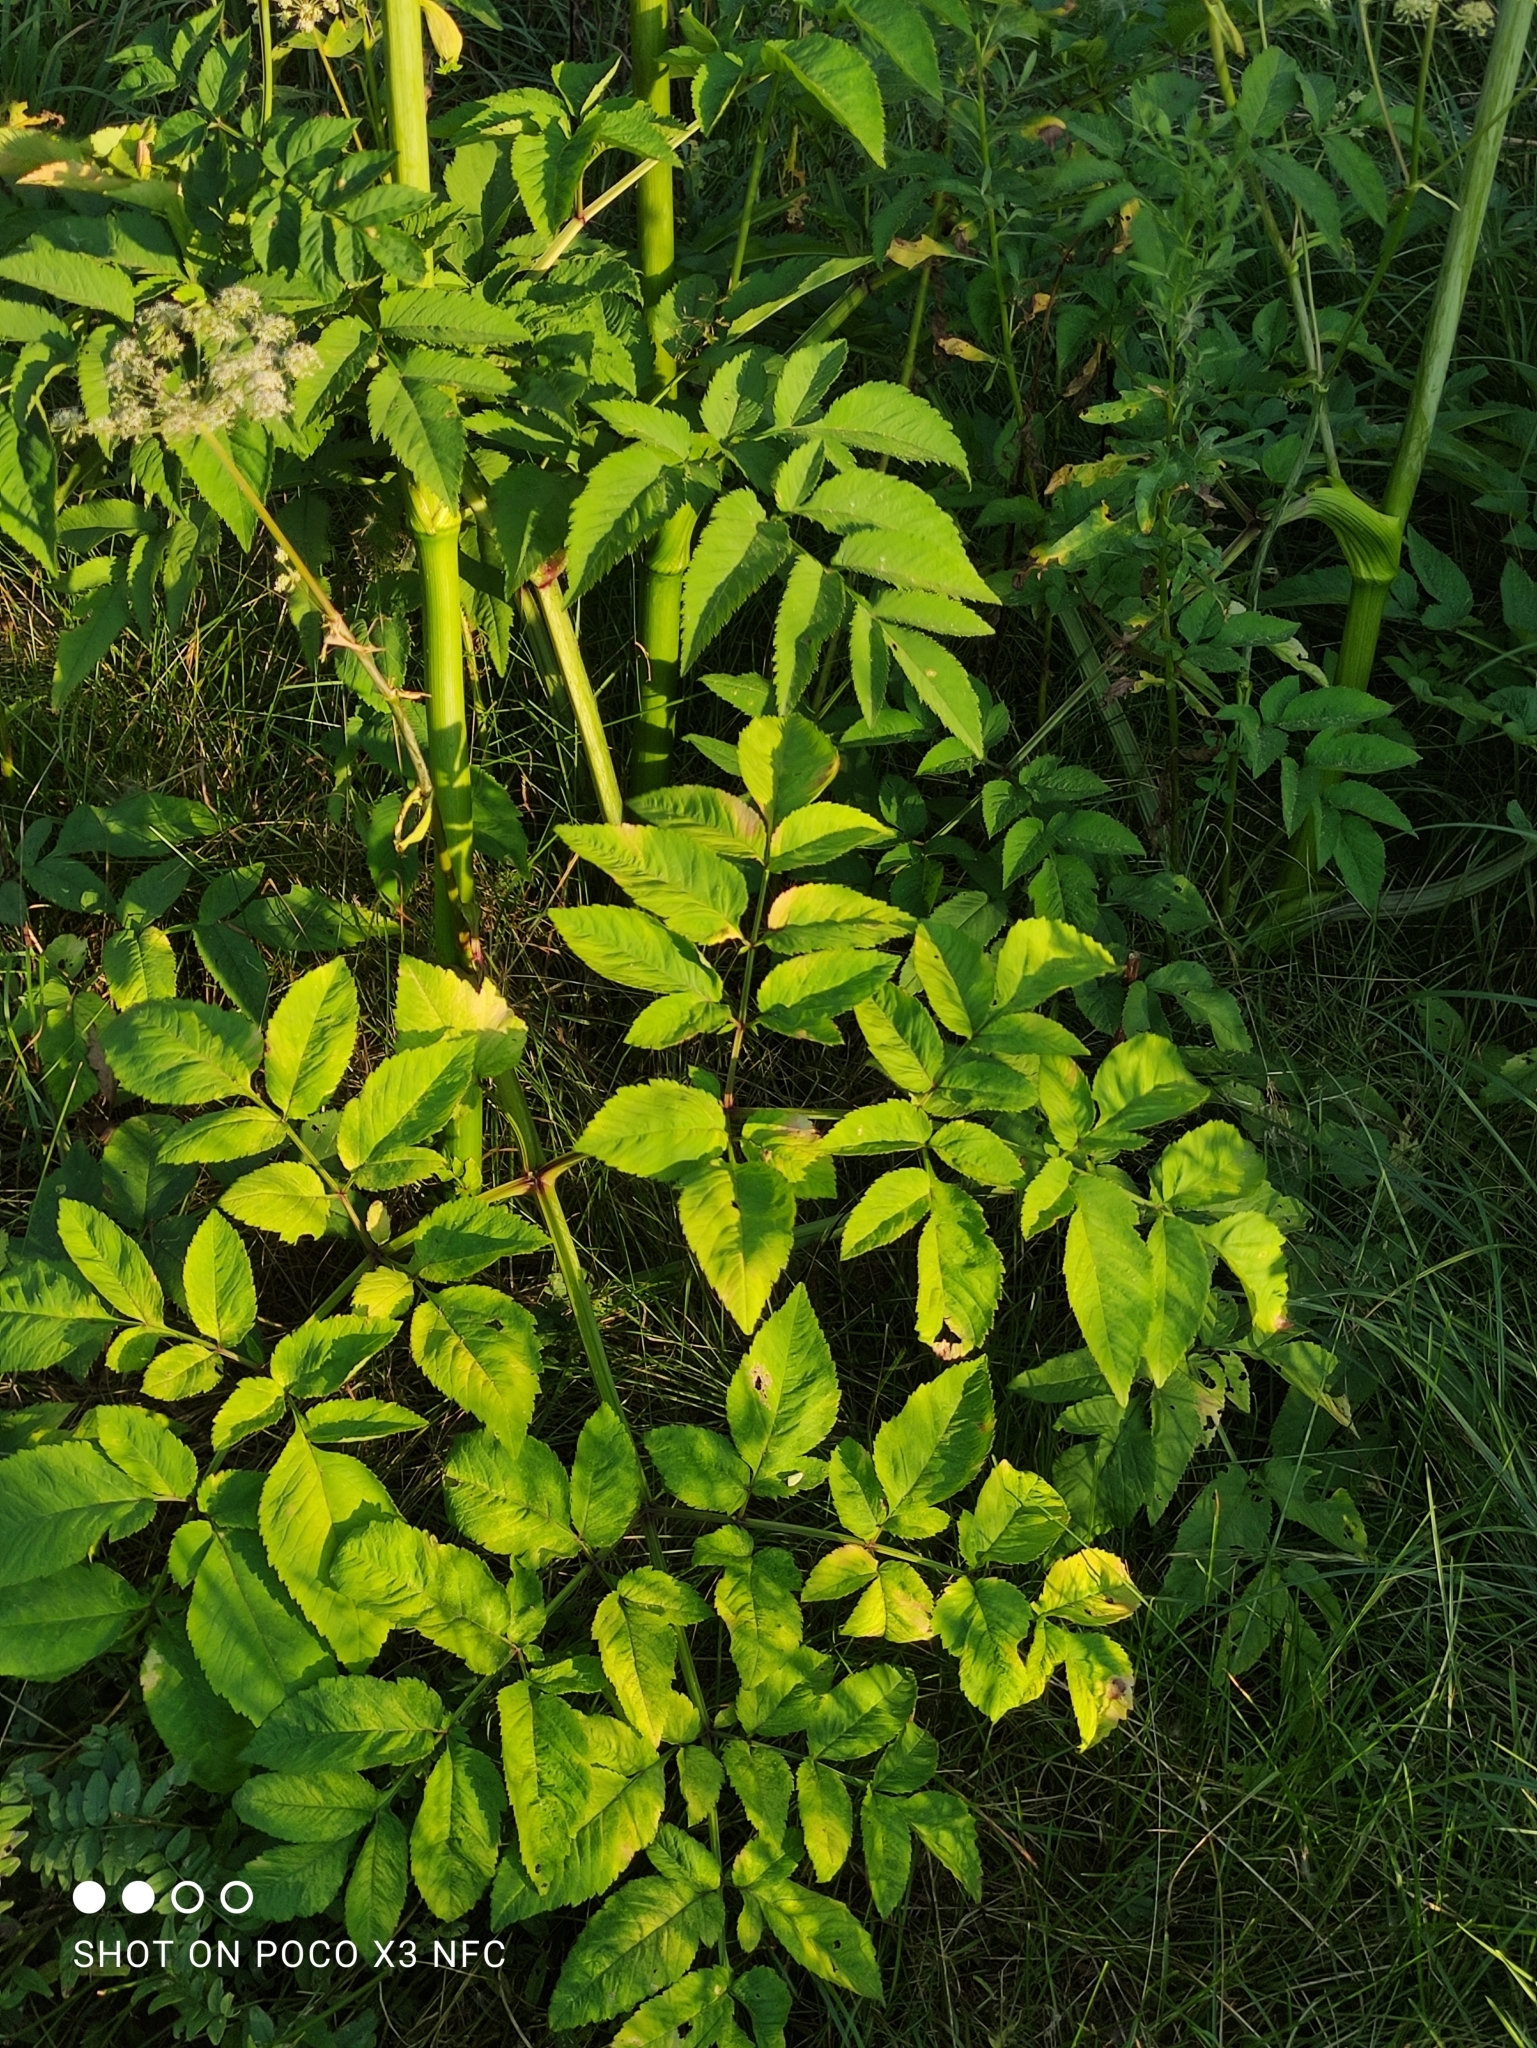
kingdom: Plantae
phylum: Tracheophyta
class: Magnoliopsida
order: Apiales
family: Apiaceae
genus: Angelica
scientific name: Angelica sylvestris
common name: Wild angelica
